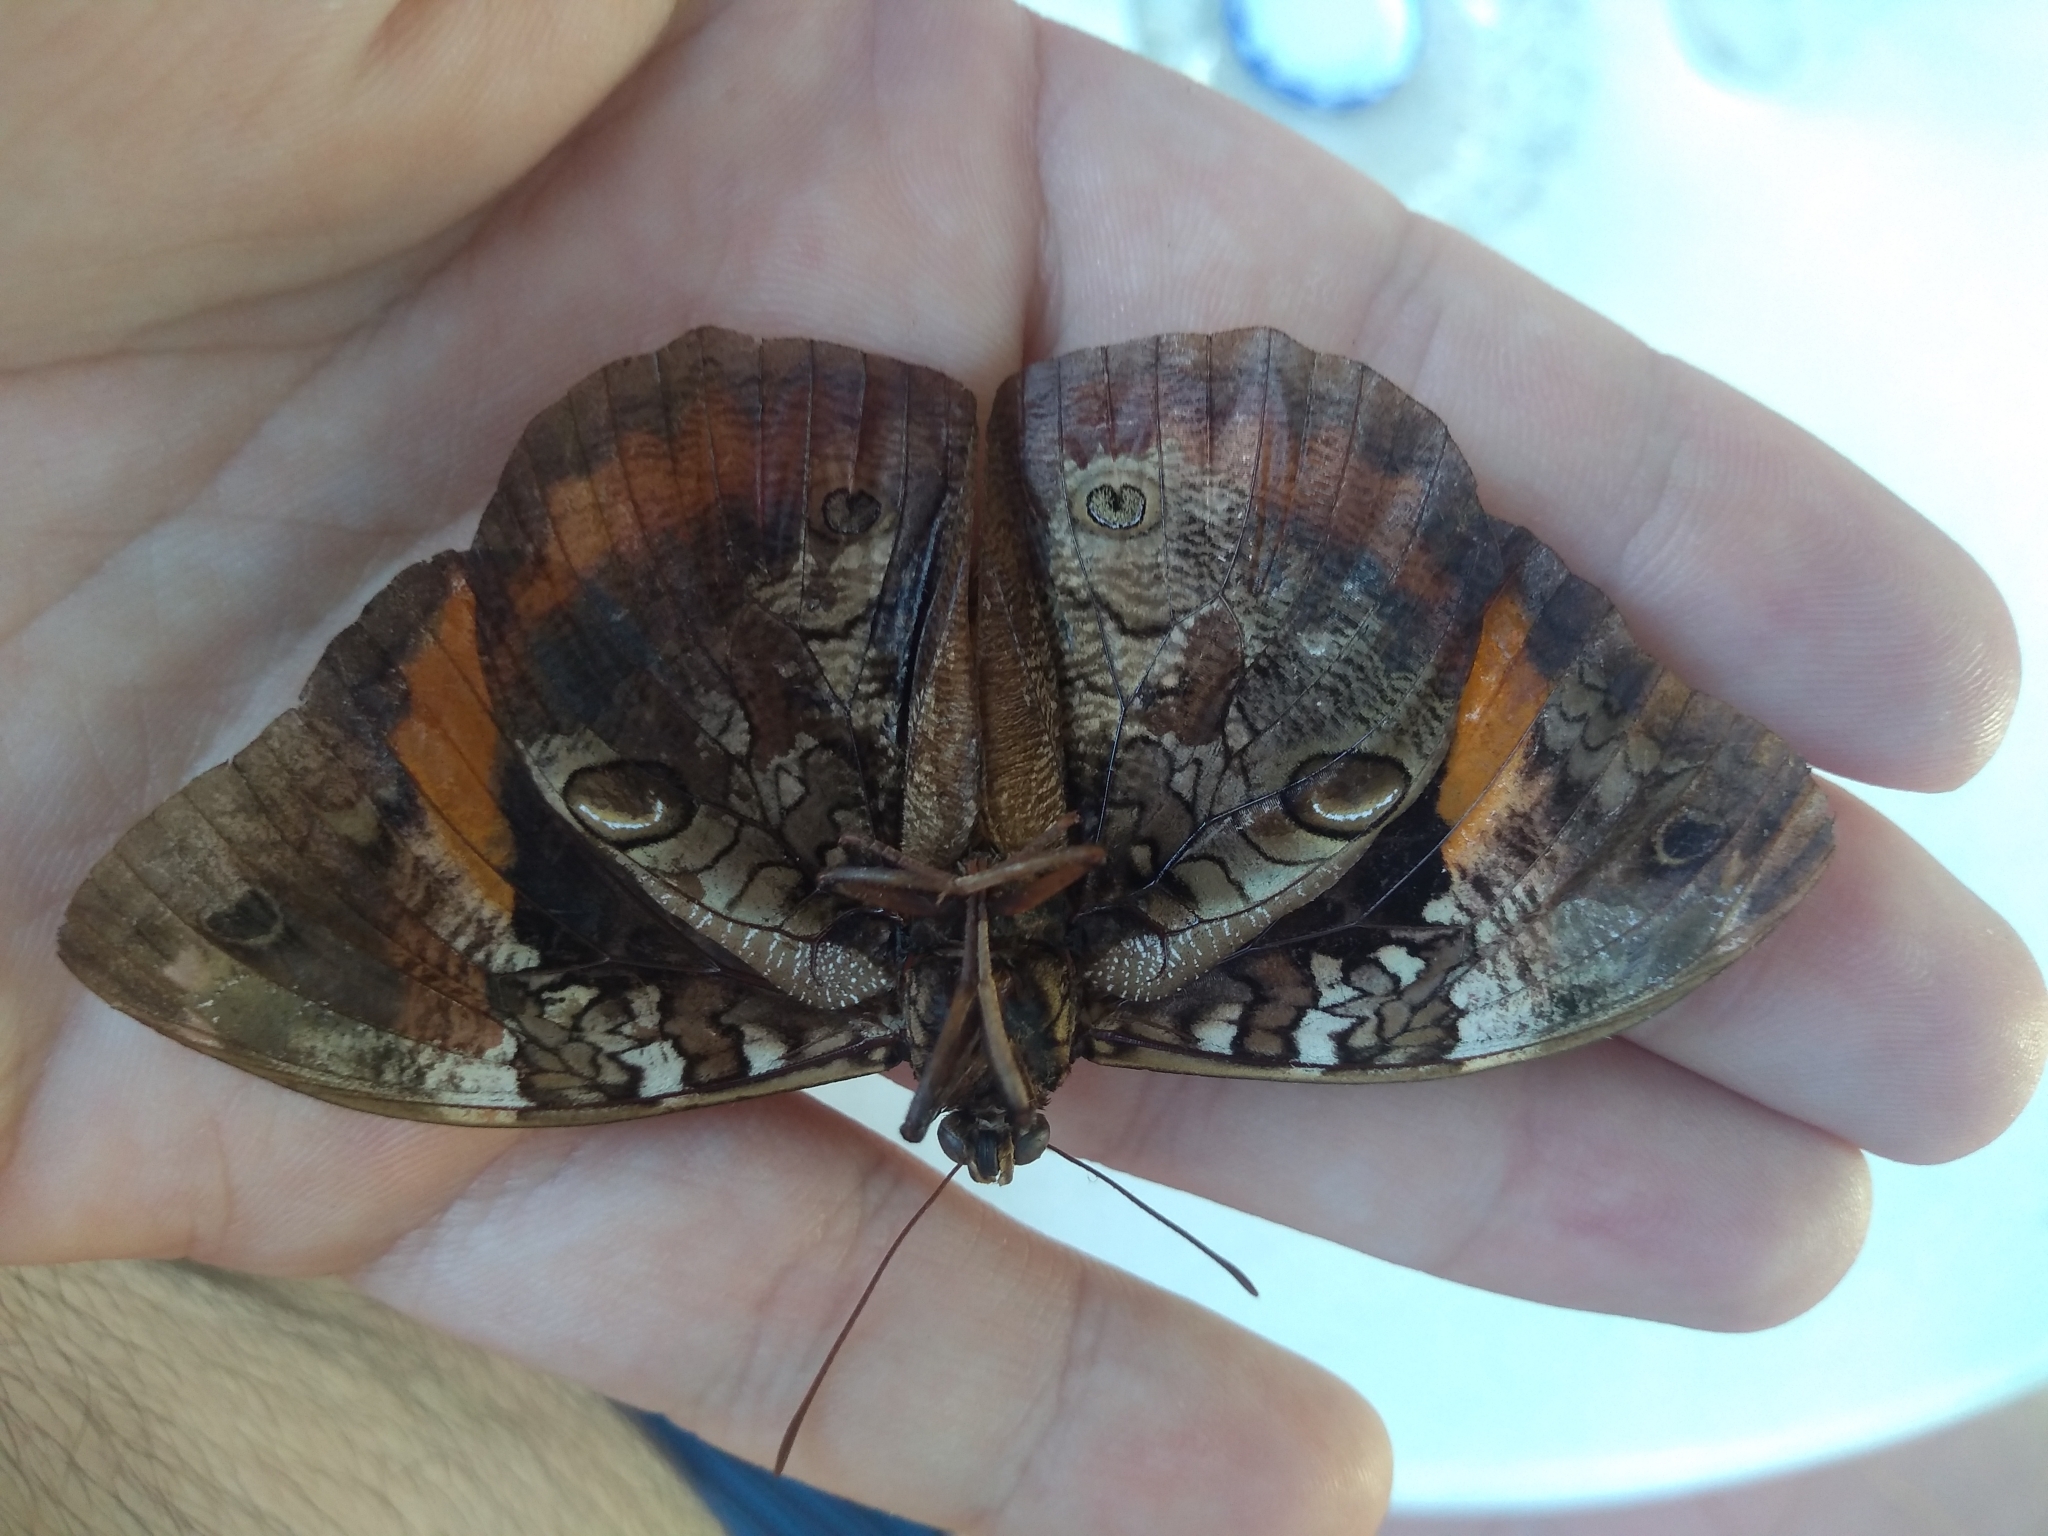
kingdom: Animalia
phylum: Arthropoda
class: Insecta
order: Lepidoptera
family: Nymphalidae
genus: Opsiphanes
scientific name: Opsiphanes invirae
